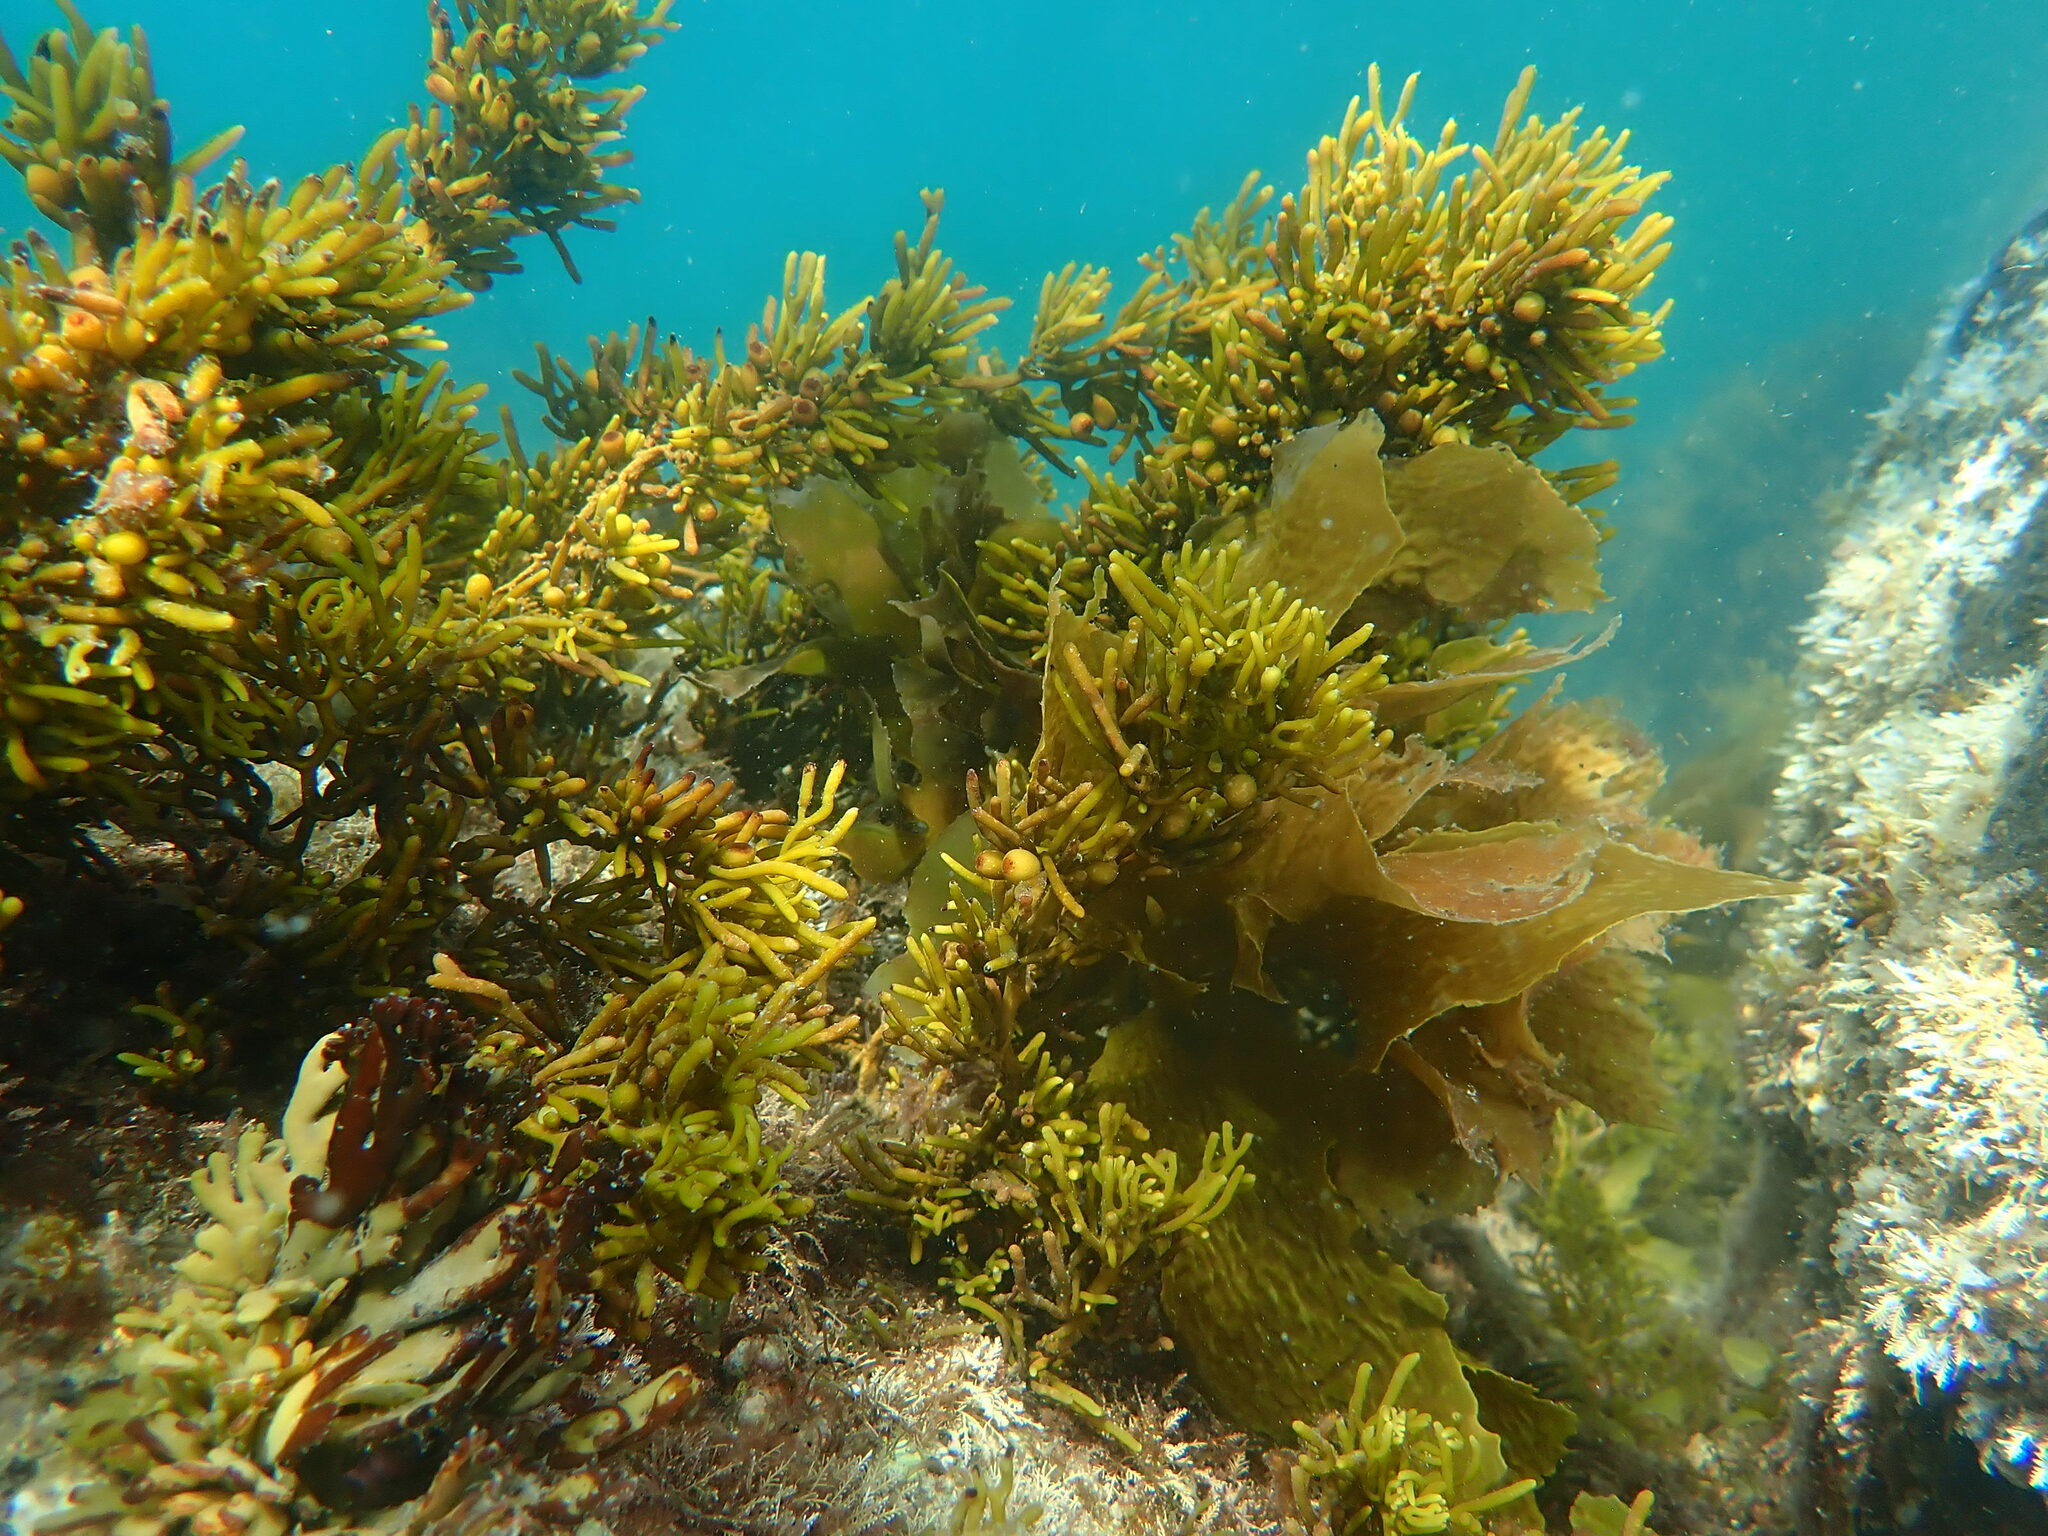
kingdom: Chromista
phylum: Ochrophyta
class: Phaeophyceae
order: Fucales
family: Sargassaceae
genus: Cystophora
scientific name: Cystophora torulosa
